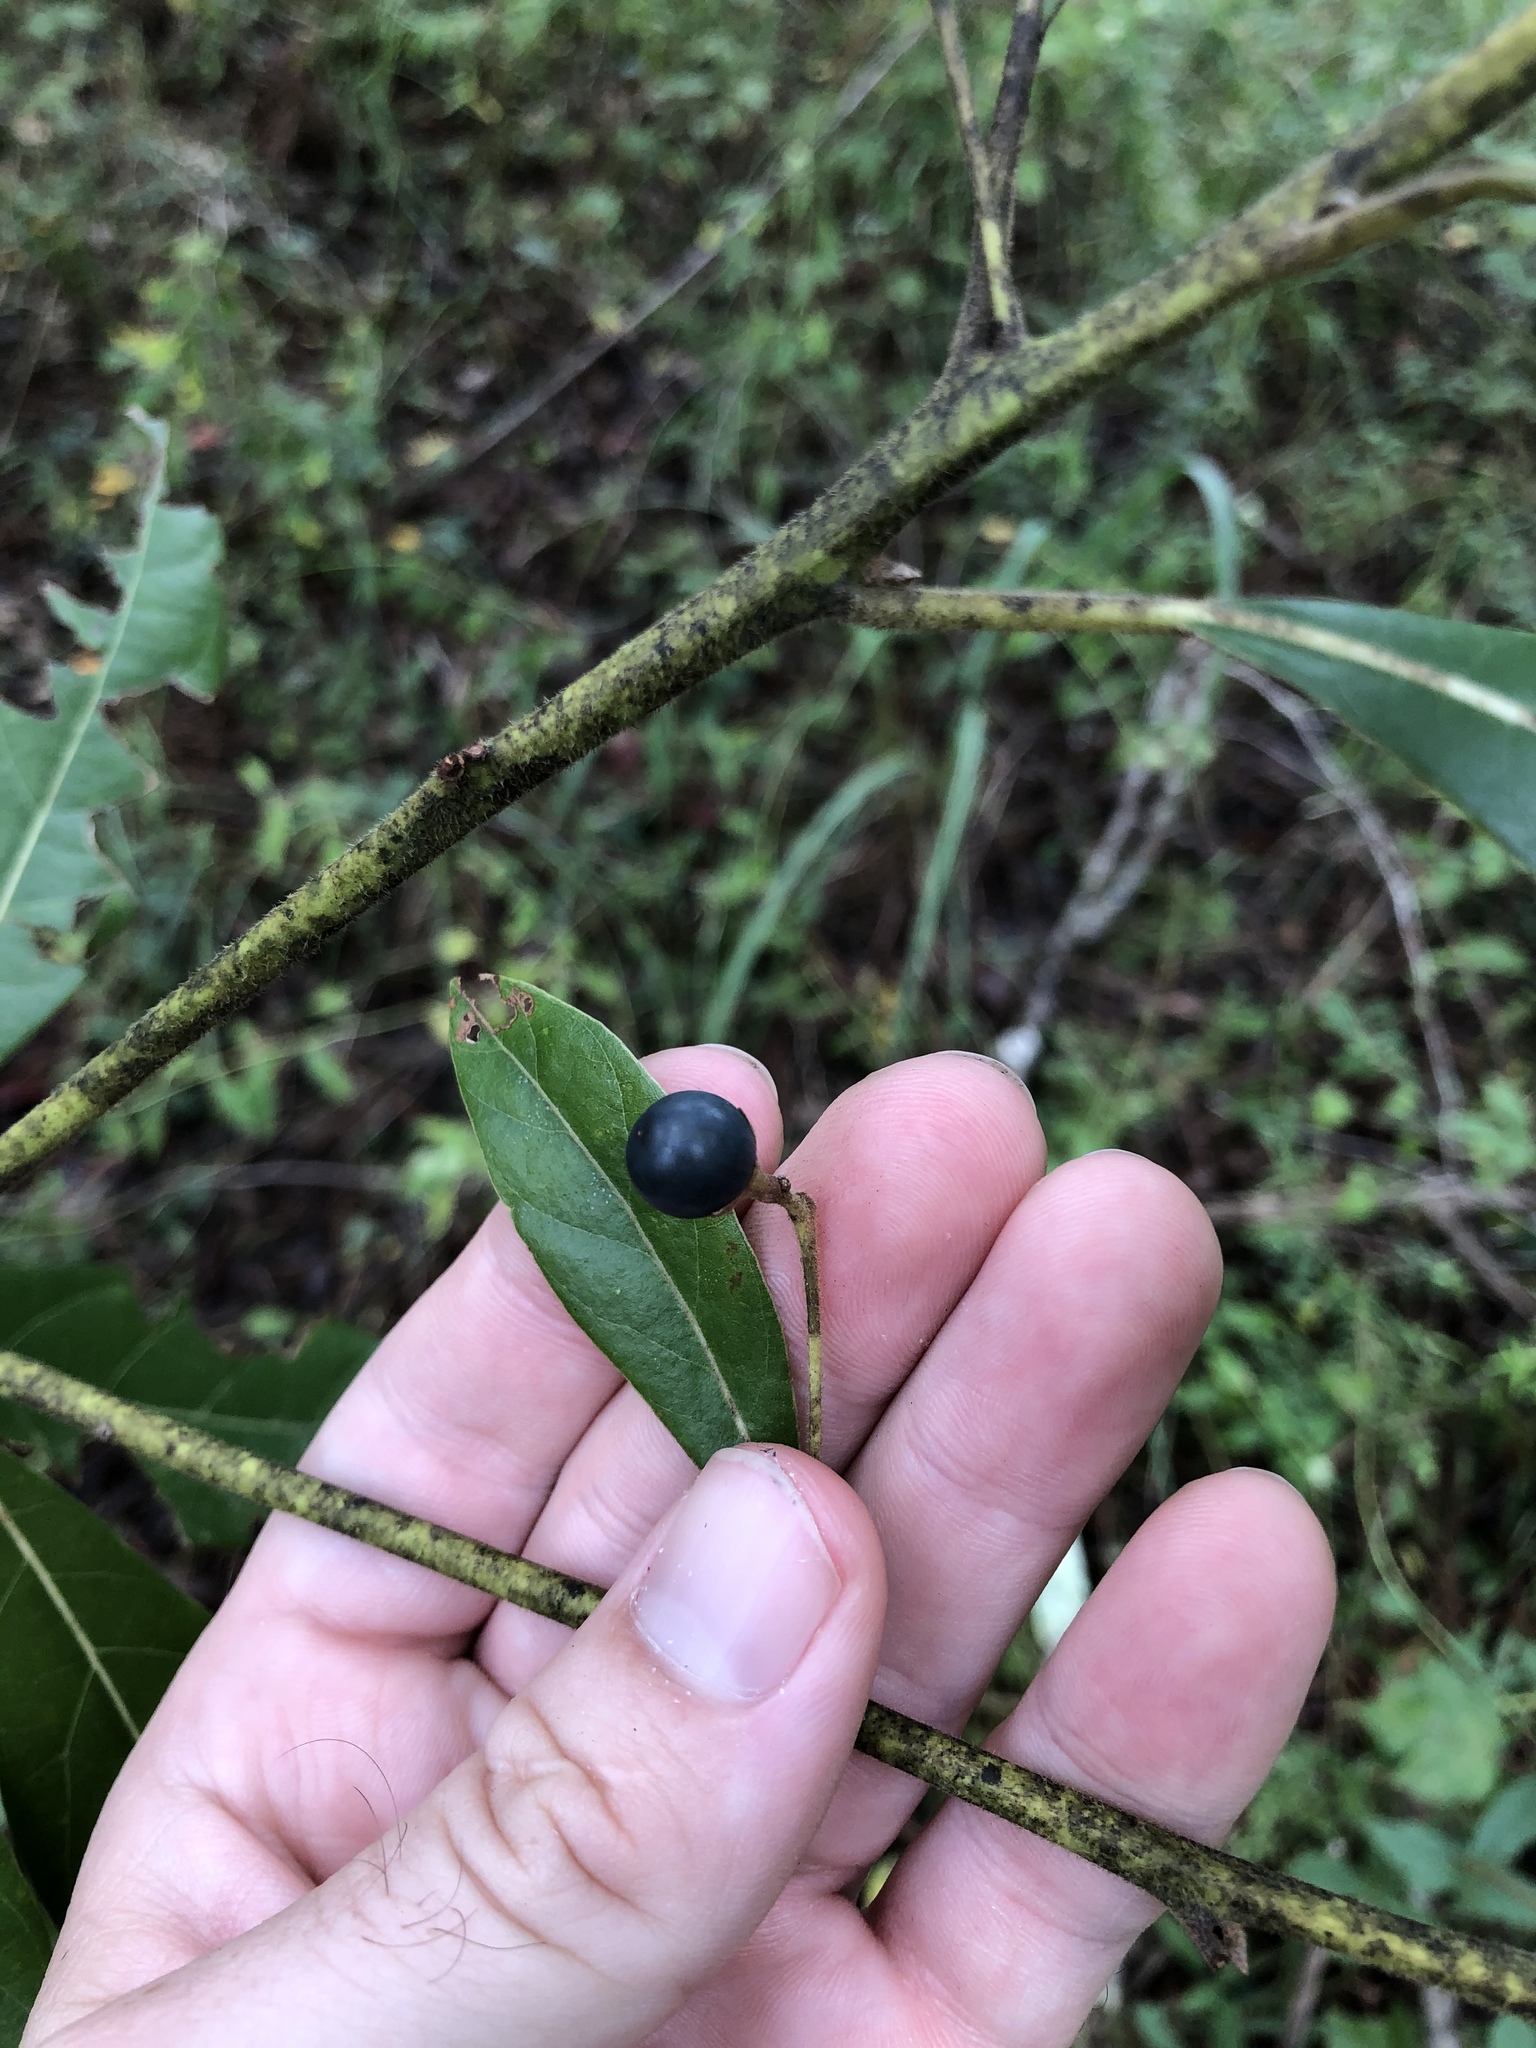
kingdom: Plantae
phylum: Tracheophyta
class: Magnoliopsida
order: Laurales
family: Lauraceae
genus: Persea
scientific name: Persea palustris
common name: Swampbay
